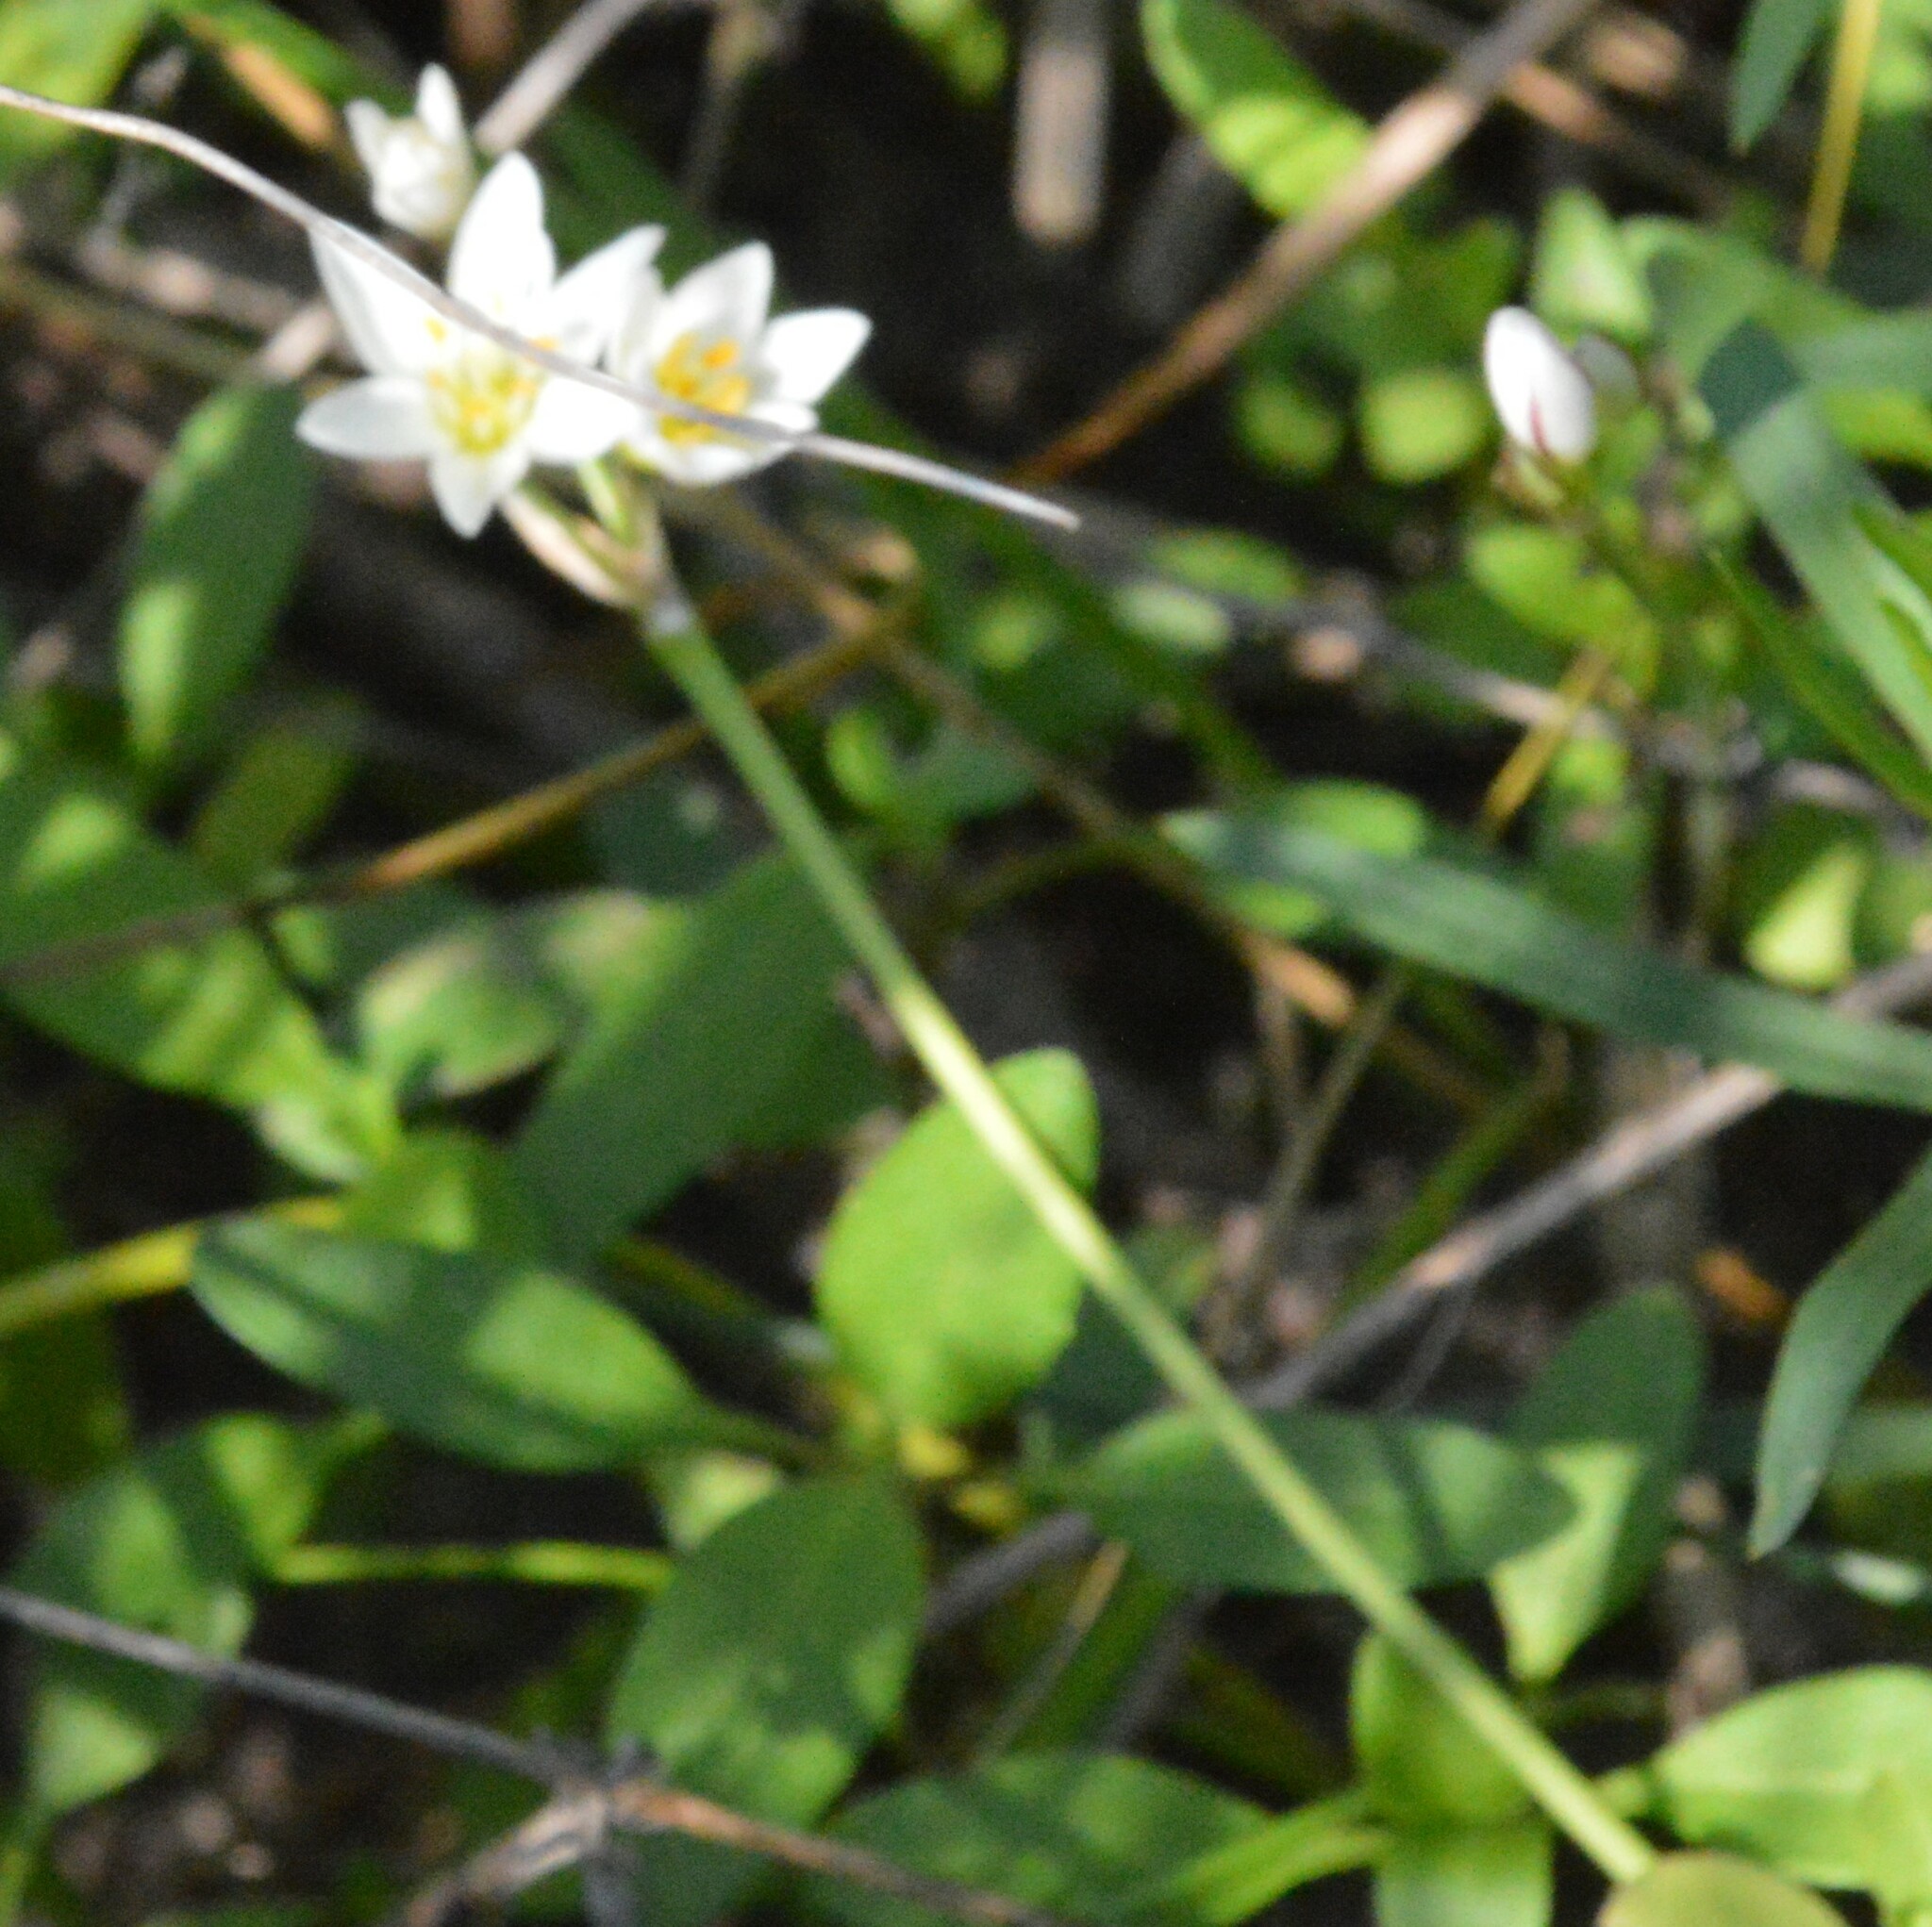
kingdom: Plantae
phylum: Tracheophyta
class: Liliopsida
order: Asparagales
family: Amaryllidaceae
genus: Nothoscordum
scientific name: Nothoscordum bivalve
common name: Crow-poison
